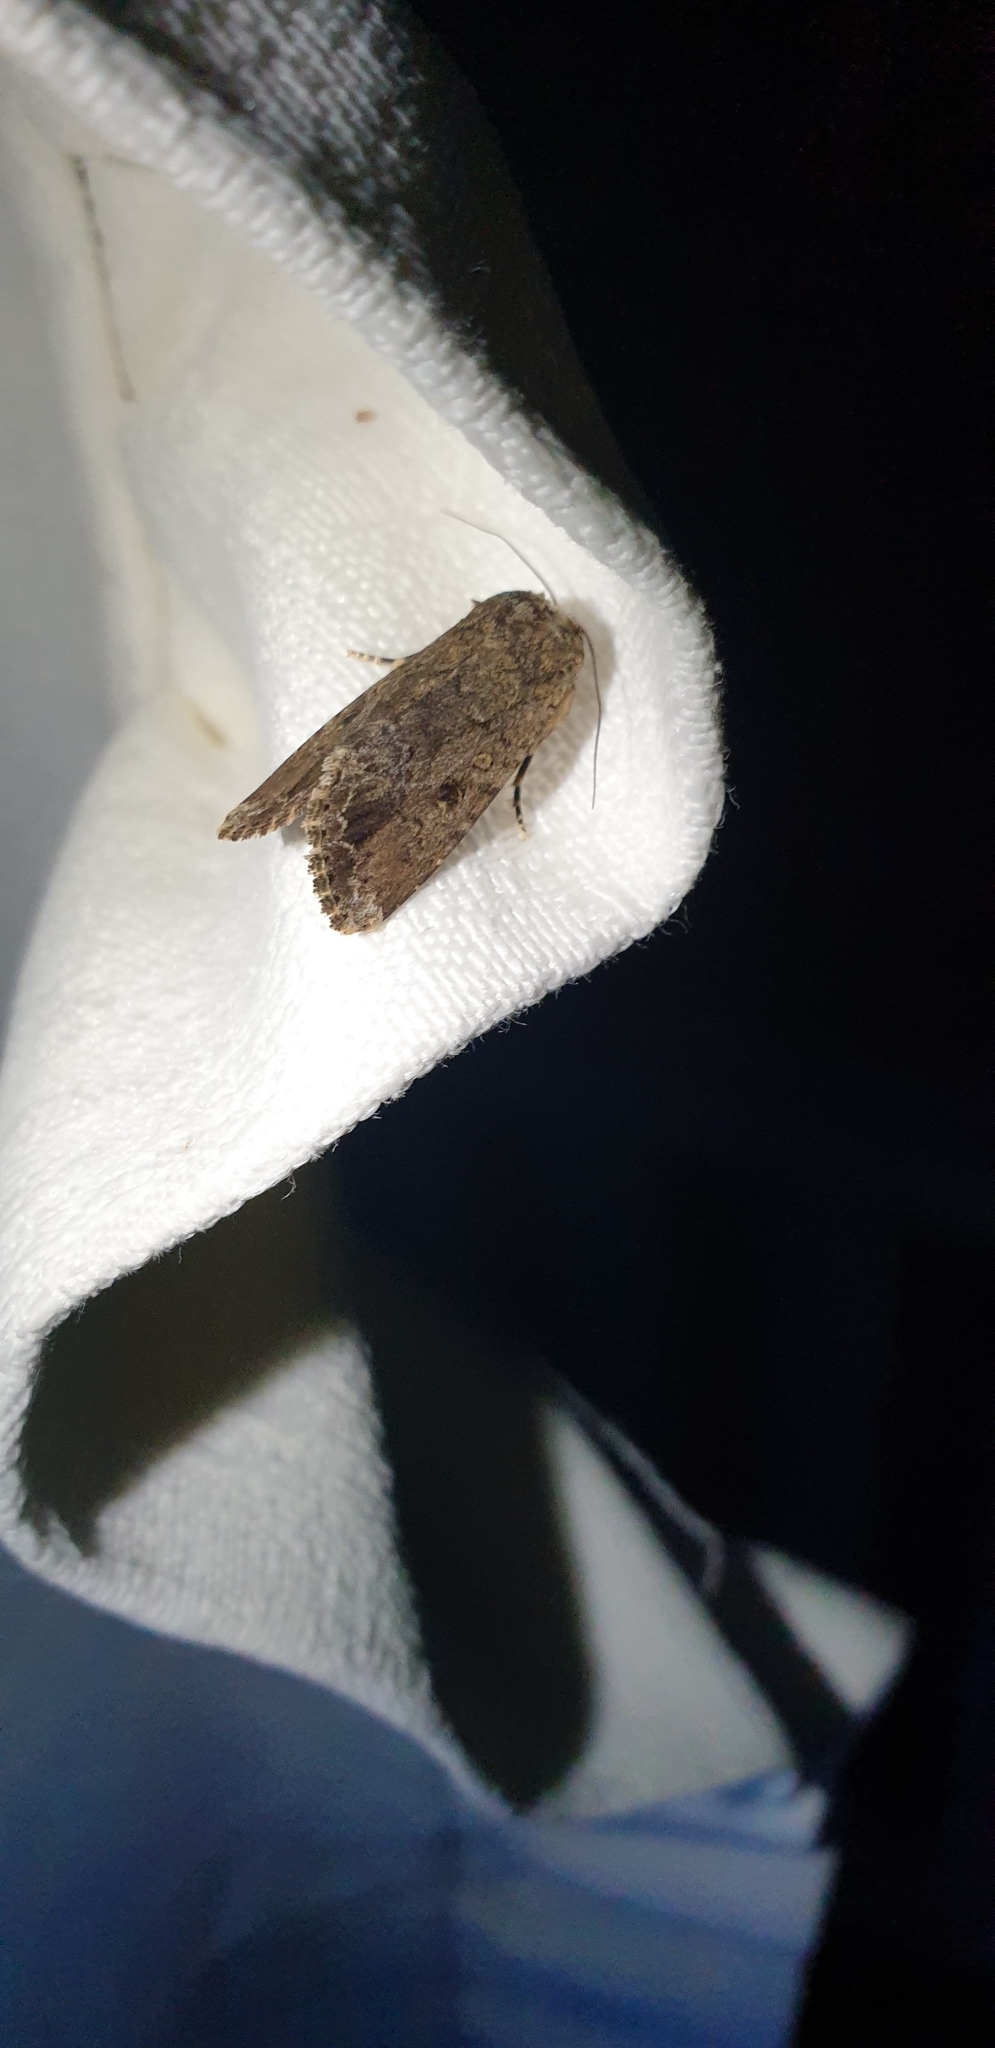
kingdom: Animalia
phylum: Arthropoda
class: Insecta
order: Lepidoptera
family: Noctuidae
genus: Spodoptera
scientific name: Spodoptera exempta
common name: African armyworm
